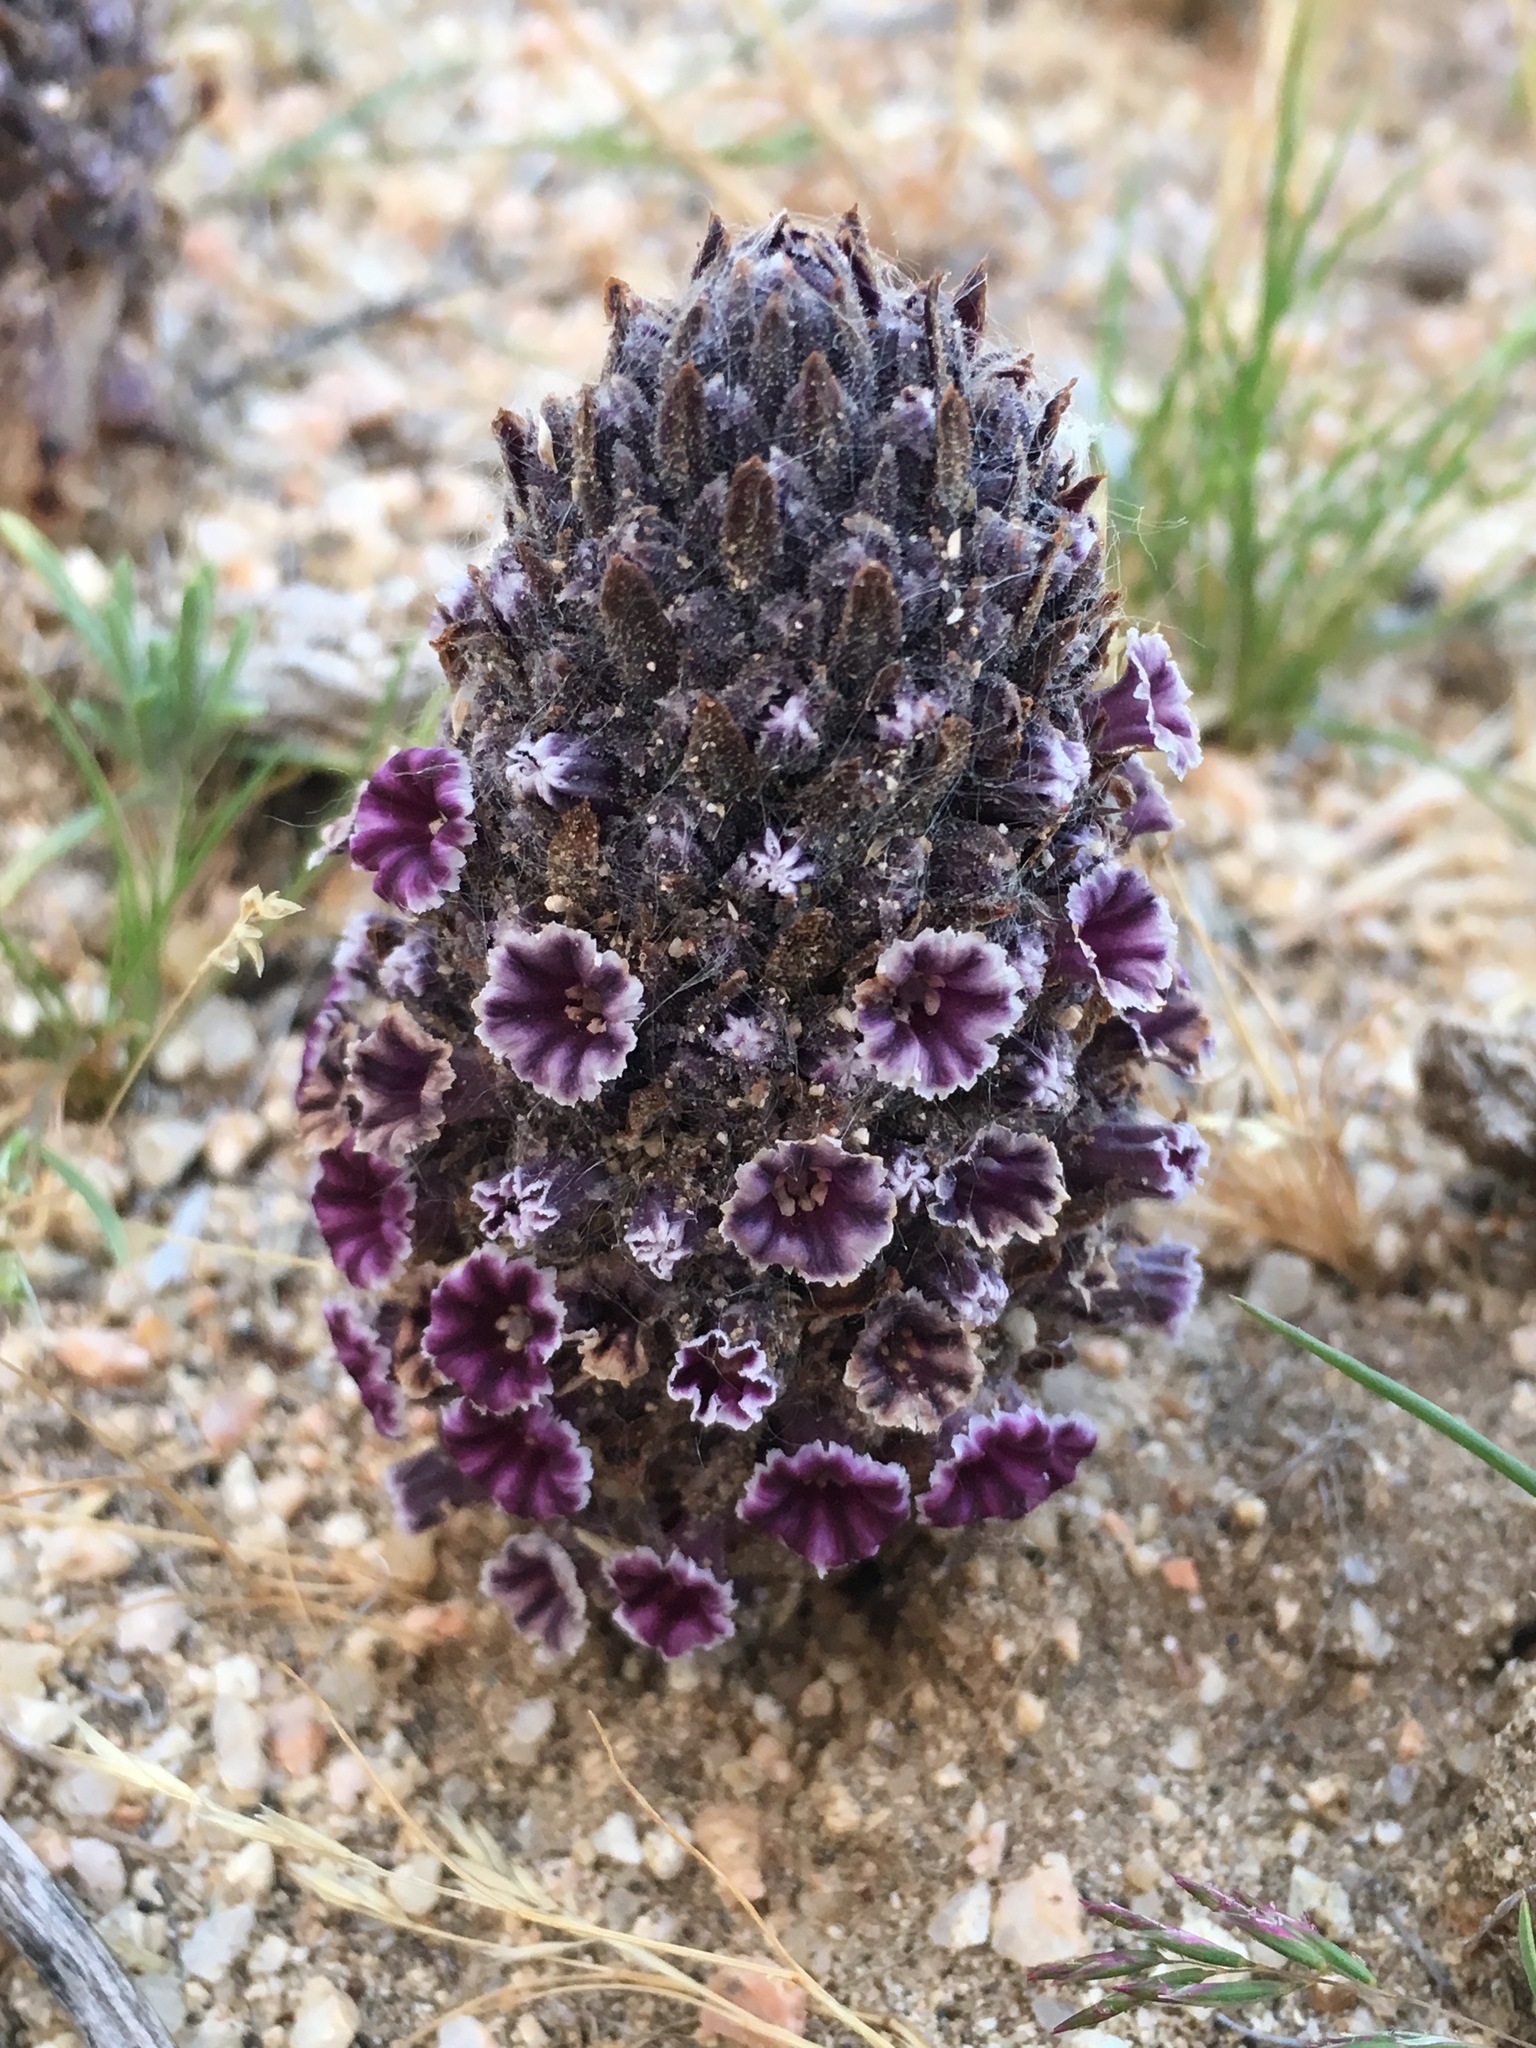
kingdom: Plantae
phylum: Tracheophyta
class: Magnoliopsida
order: Boraginales
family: Lennoaceae
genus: Pholisma
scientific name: Pholisma arenarium
